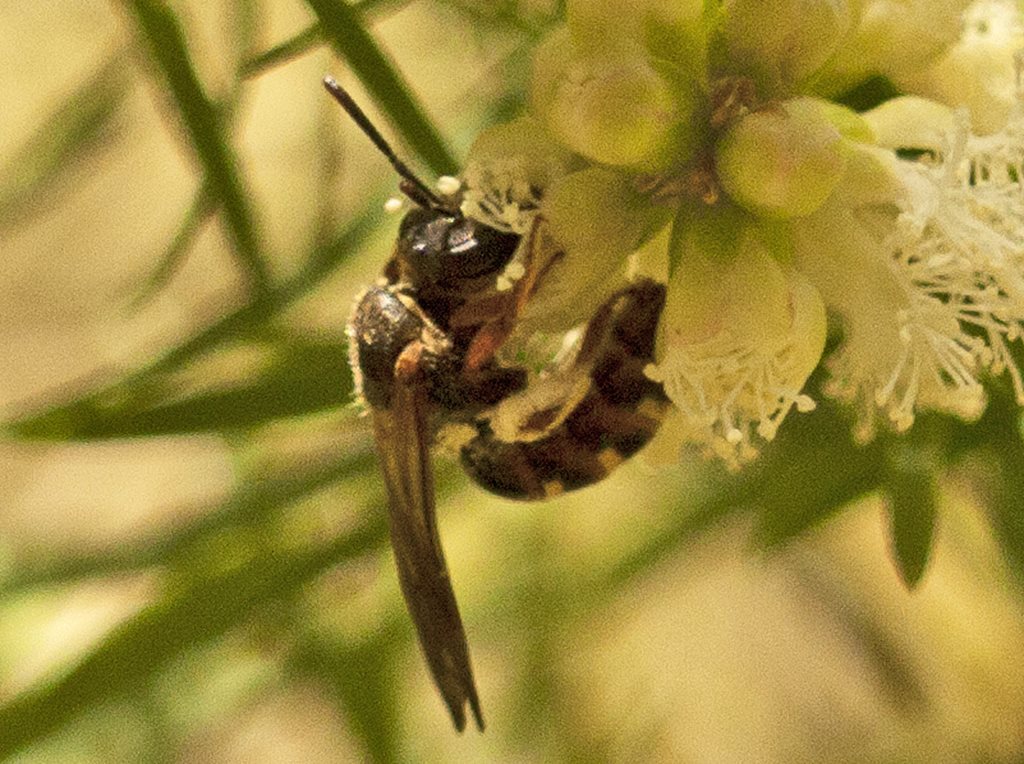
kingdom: Animalia
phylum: Arthropoda
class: Insecta
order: Hymenoptera
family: Halictidae
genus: Lasioglossum
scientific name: Lasioglossum bicingulatum
